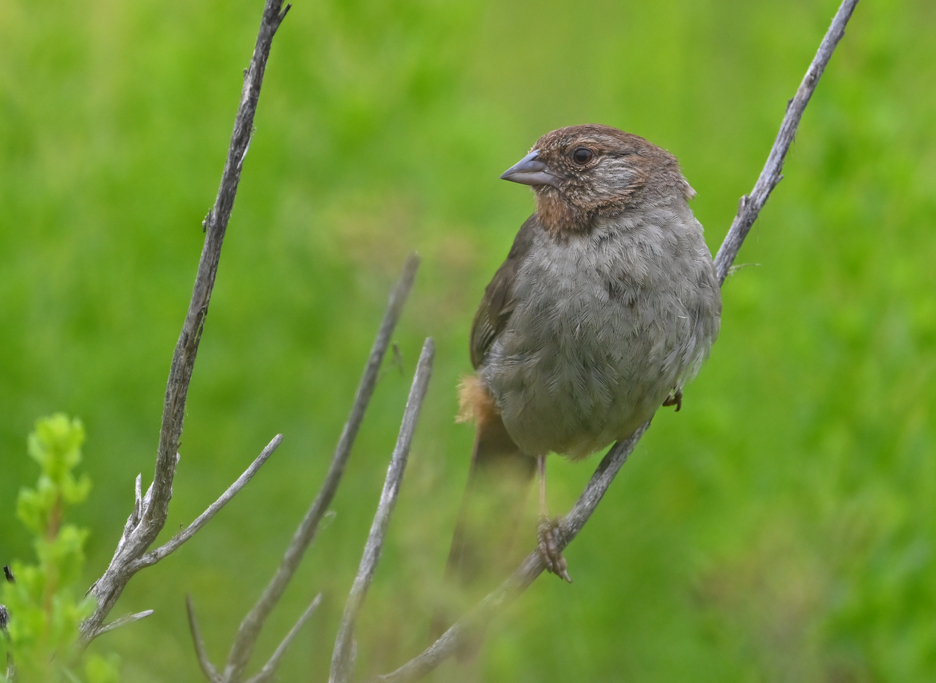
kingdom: Animalia
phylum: Chordata
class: Aves
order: Passeriformes
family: Passerellidae
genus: Melozone
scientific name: Melozone crissalis
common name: California towhee
